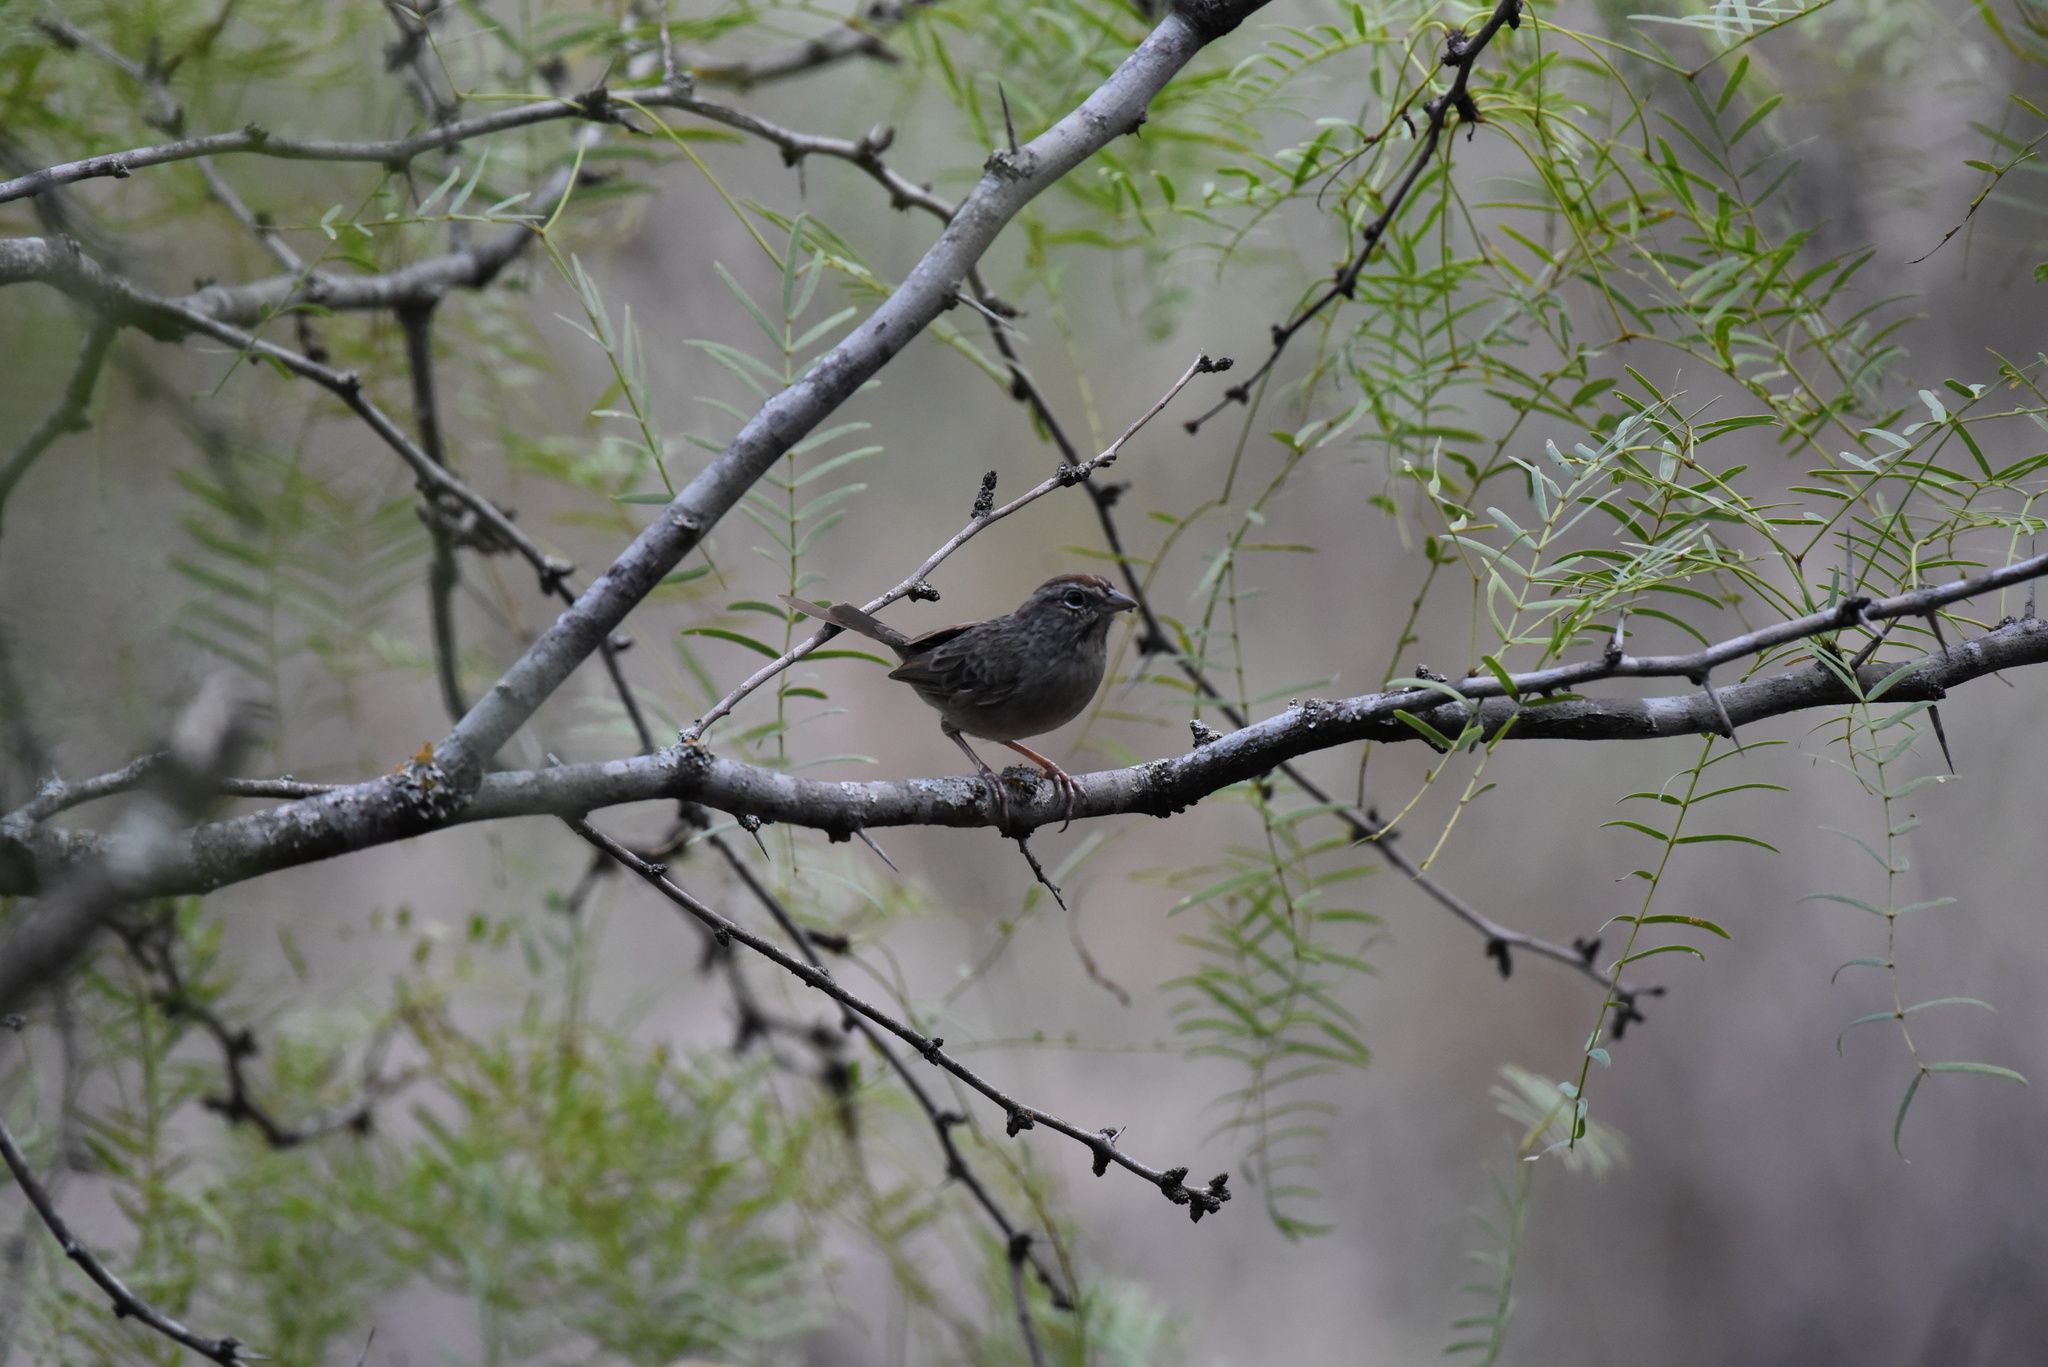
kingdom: Animalia
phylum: Chordata
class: Aves
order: Passeriformes
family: Passerellidae
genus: Aimophila
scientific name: Aimophila ruficeps
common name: Rufous-crowned sparrow
